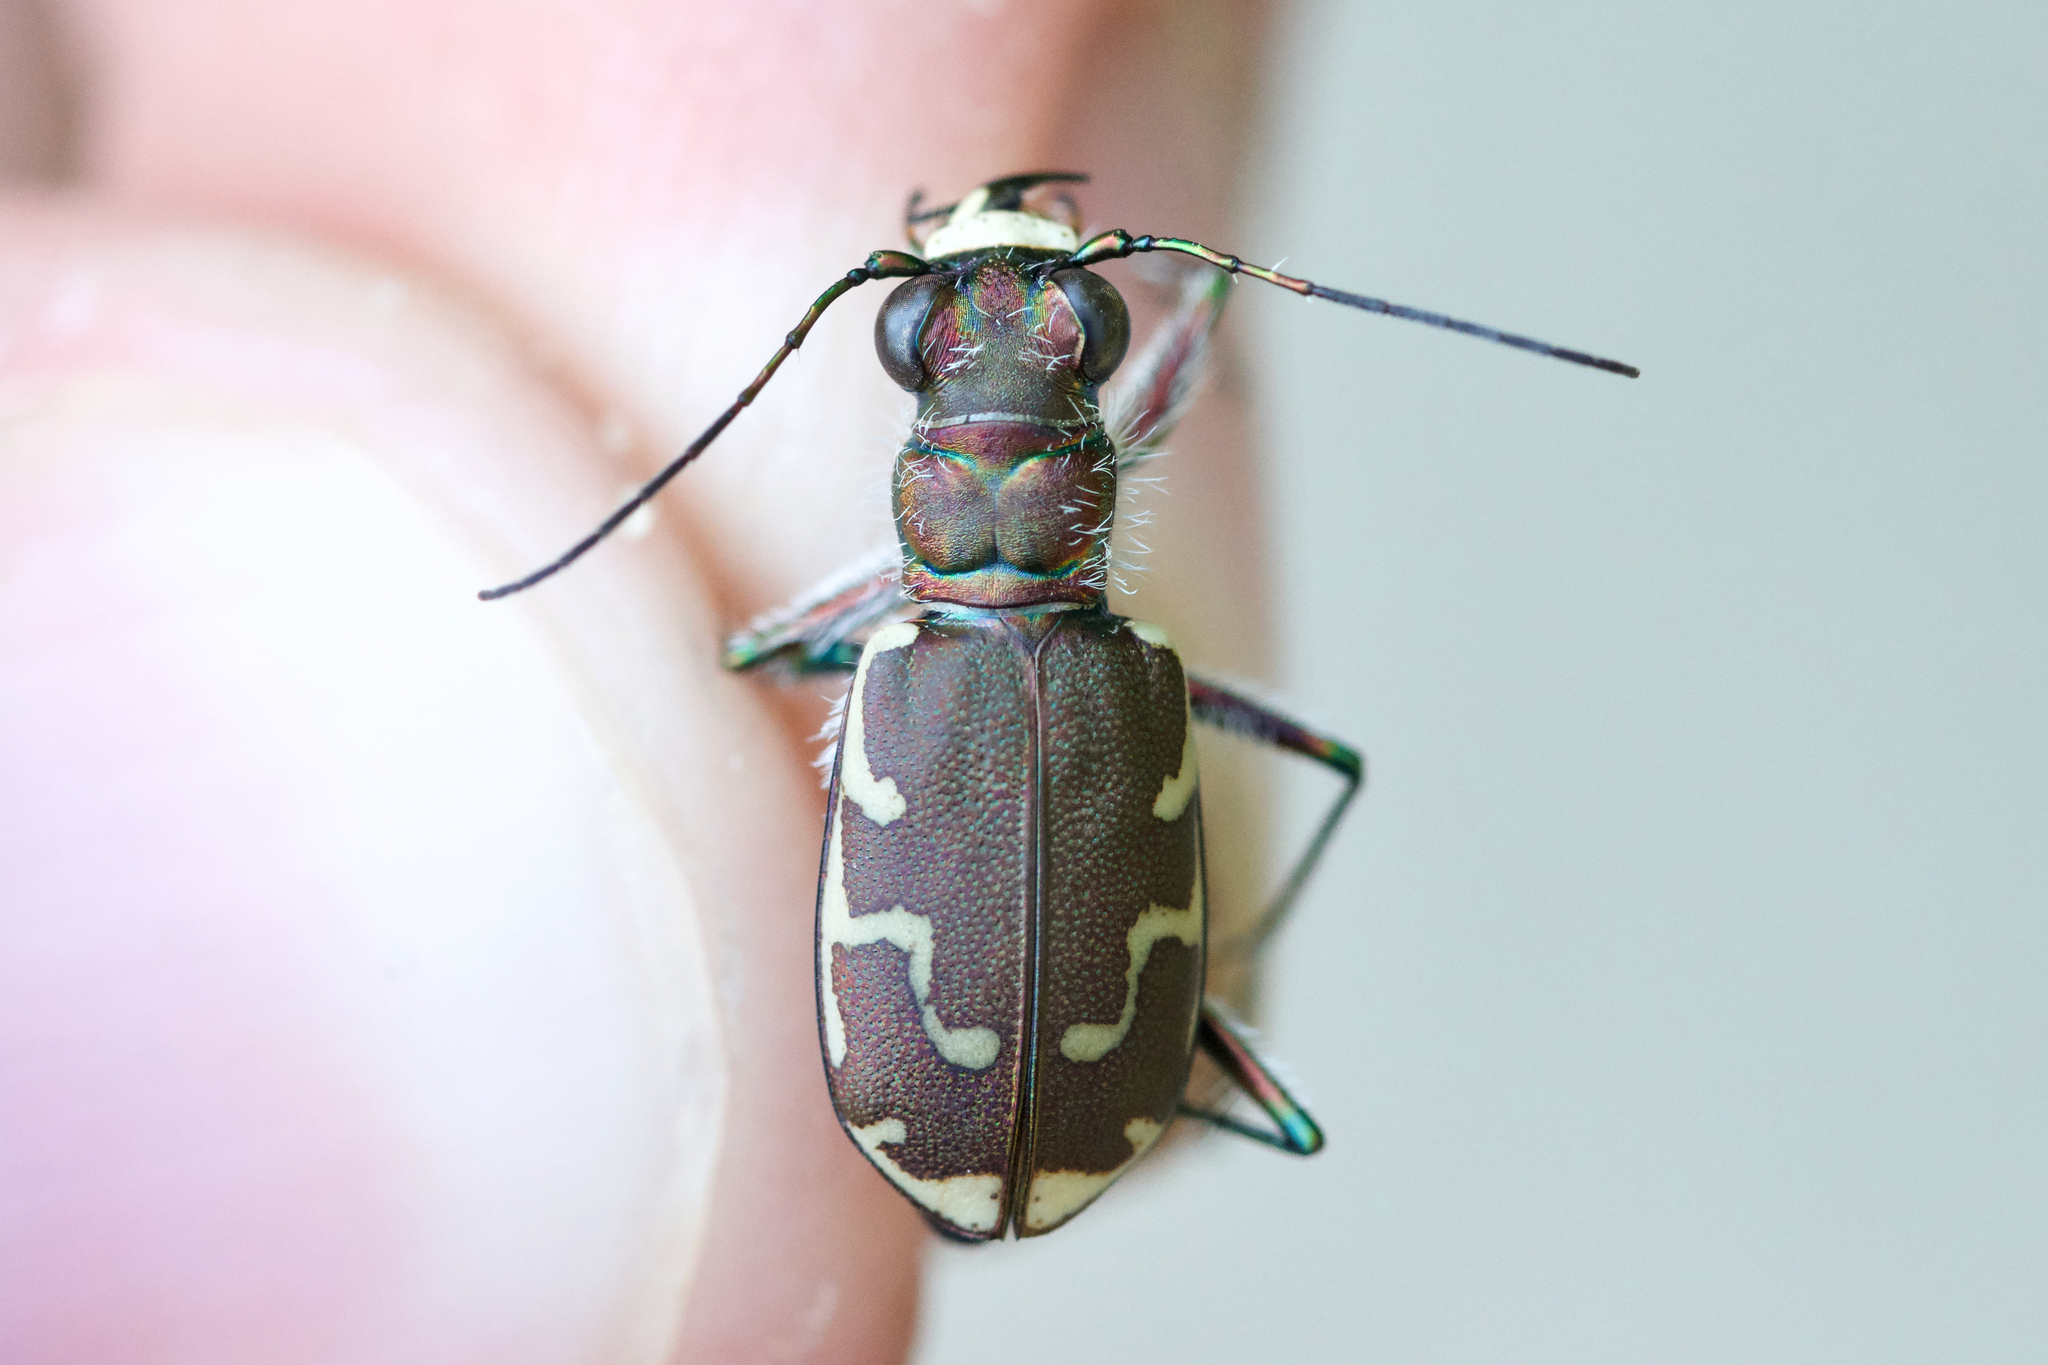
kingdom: Animalia
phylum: Arthropoda
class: Insecta
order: Coleoptera
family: Carabidae
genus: Cicindela
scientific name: Cicindela repanda
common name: Bronzed tiger beetle
